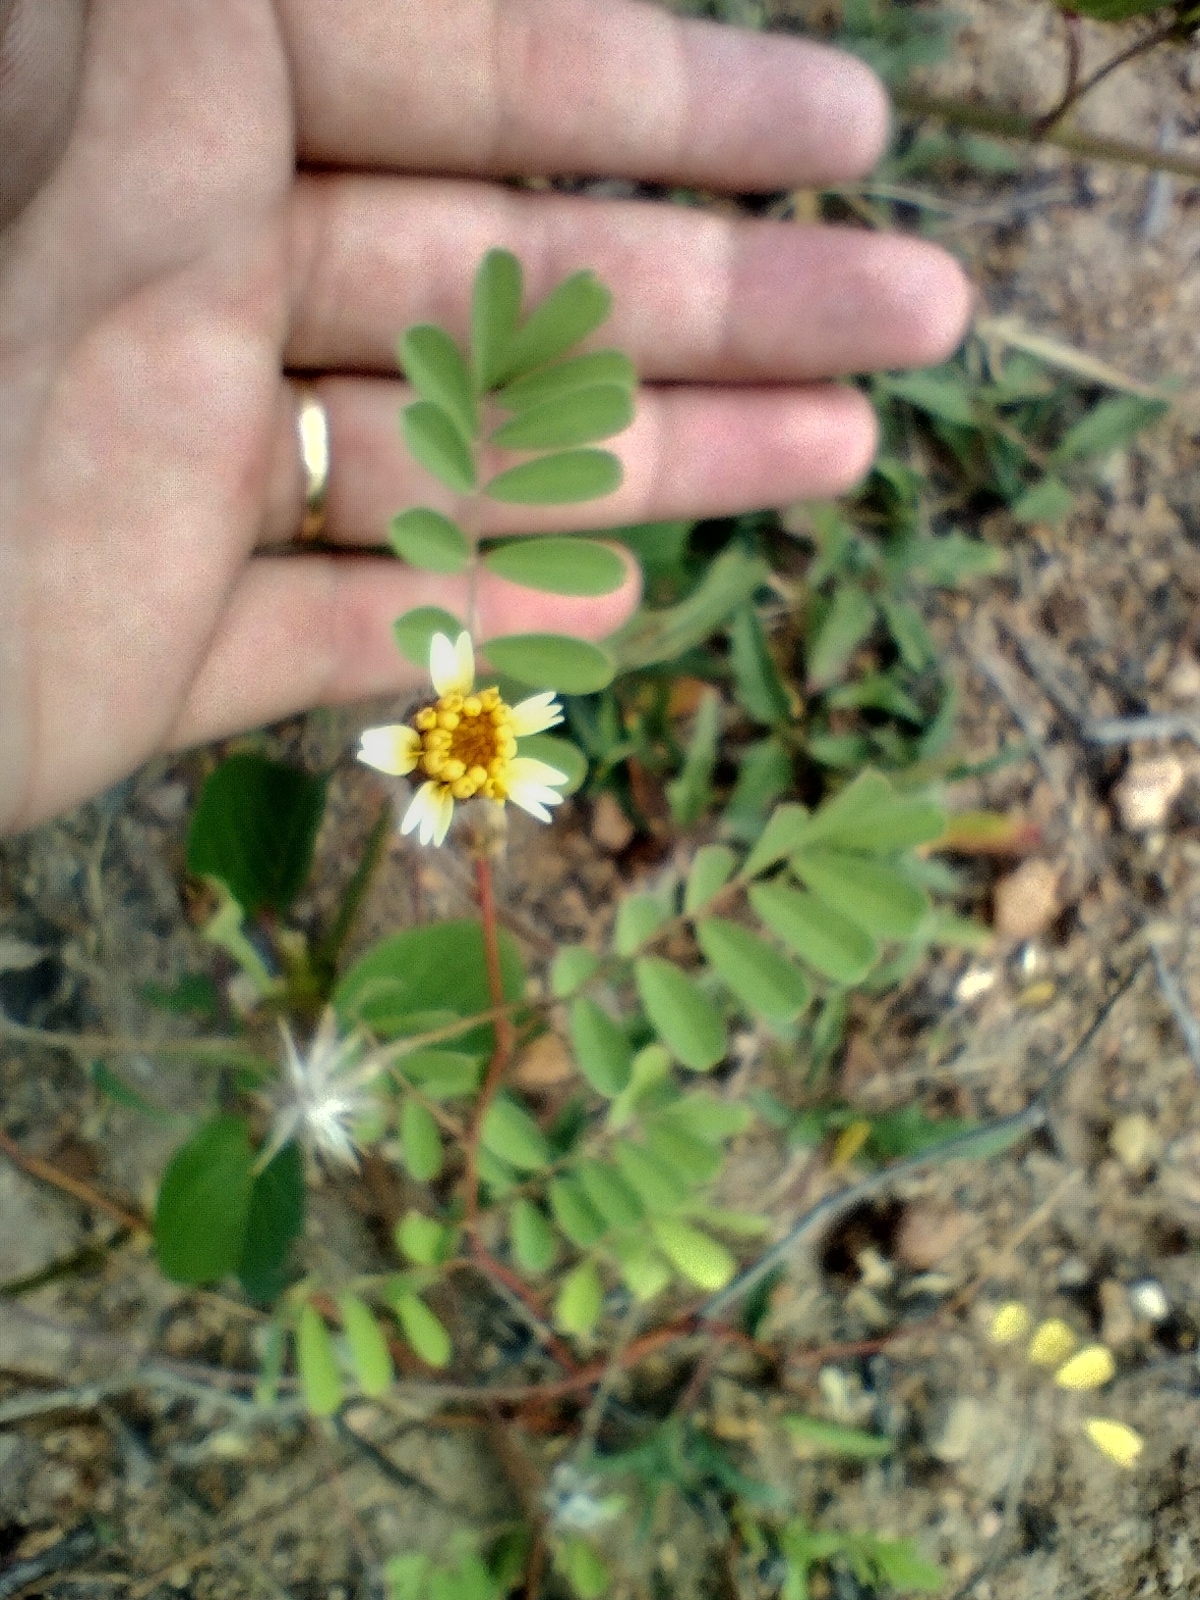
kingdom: Plantae
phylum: Tracheophyta
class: Magnoliopsida
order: Asterales
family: Asteraceae
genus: Tridax
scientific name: Tridax procumbens
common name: Coatbuttons
